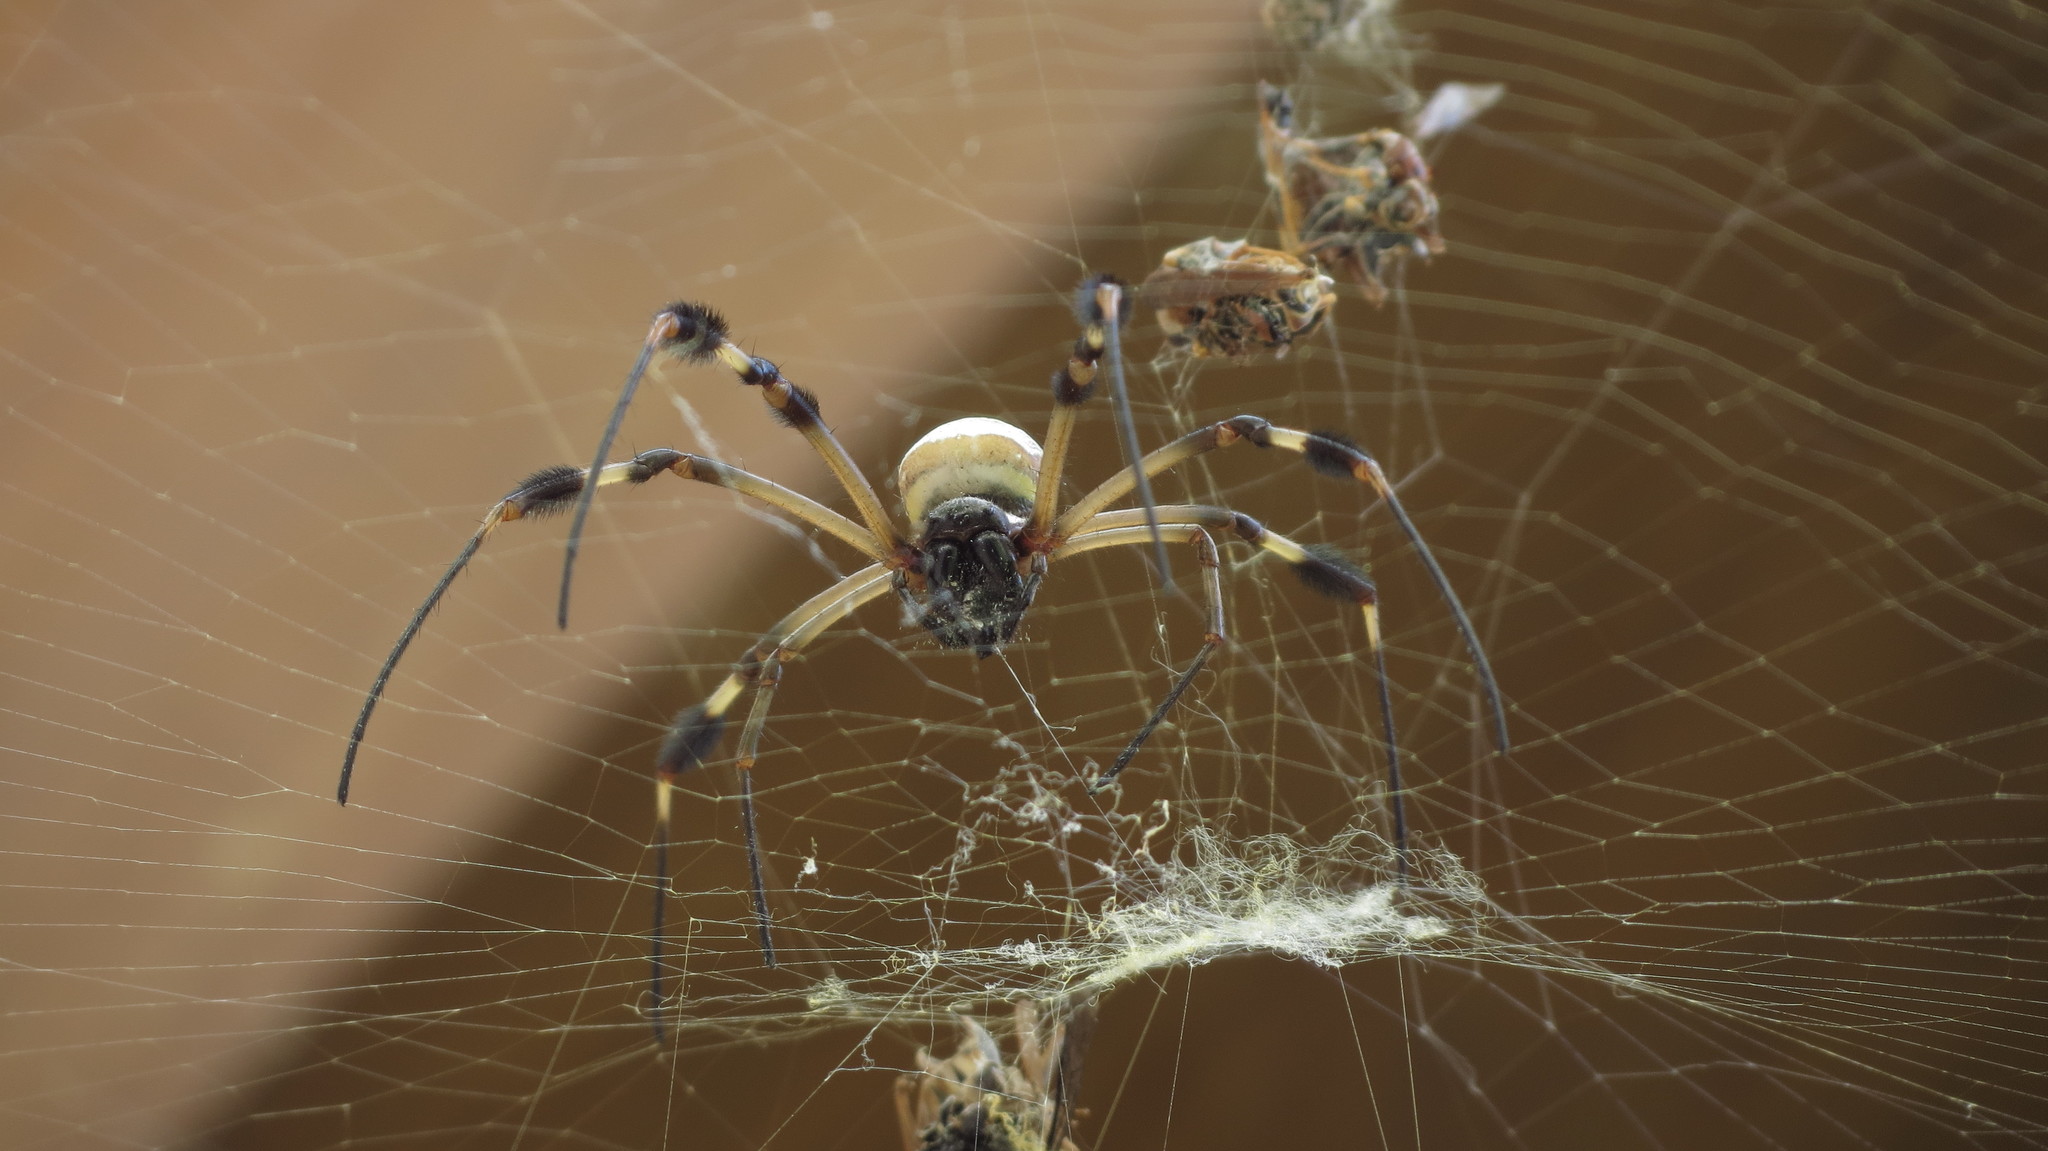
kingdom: Animalia
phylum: Arthropoda
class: Arachnida
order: Araneae
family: Araneidae
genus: Trichonephila
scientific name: Trichonephila clavipes
